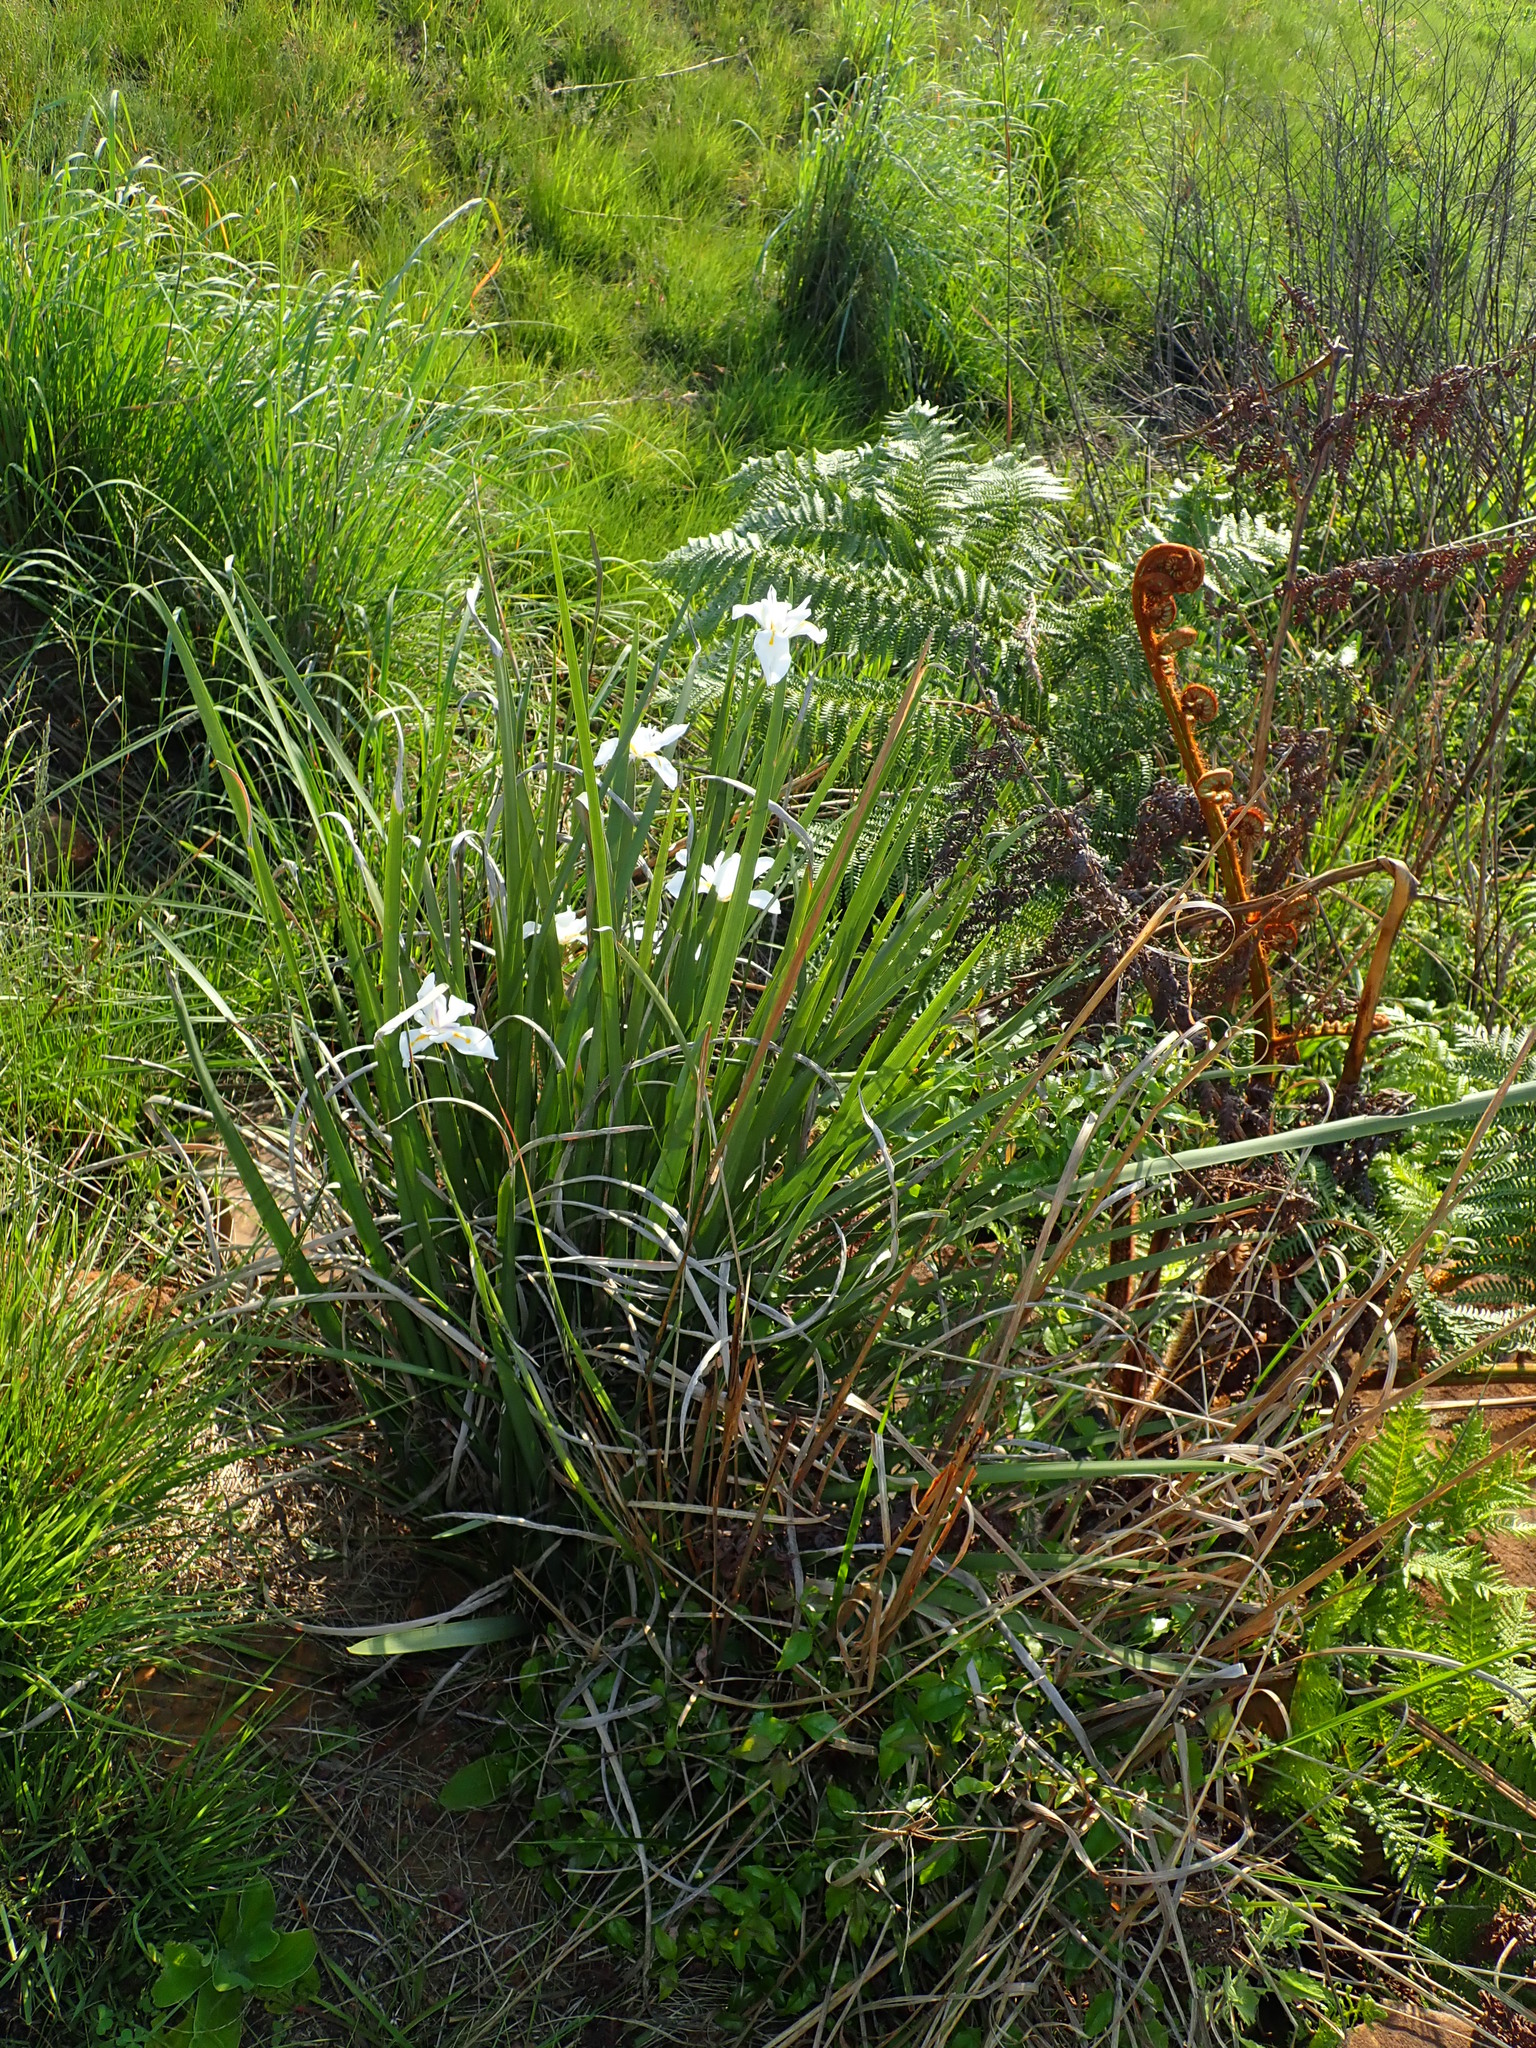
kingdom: Plantae
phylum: Tracheophyta
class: Liliopsida
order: Asparagales
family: Iridaceae
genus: Dietes
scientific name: Dietes grandiflora
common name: Wild iris
